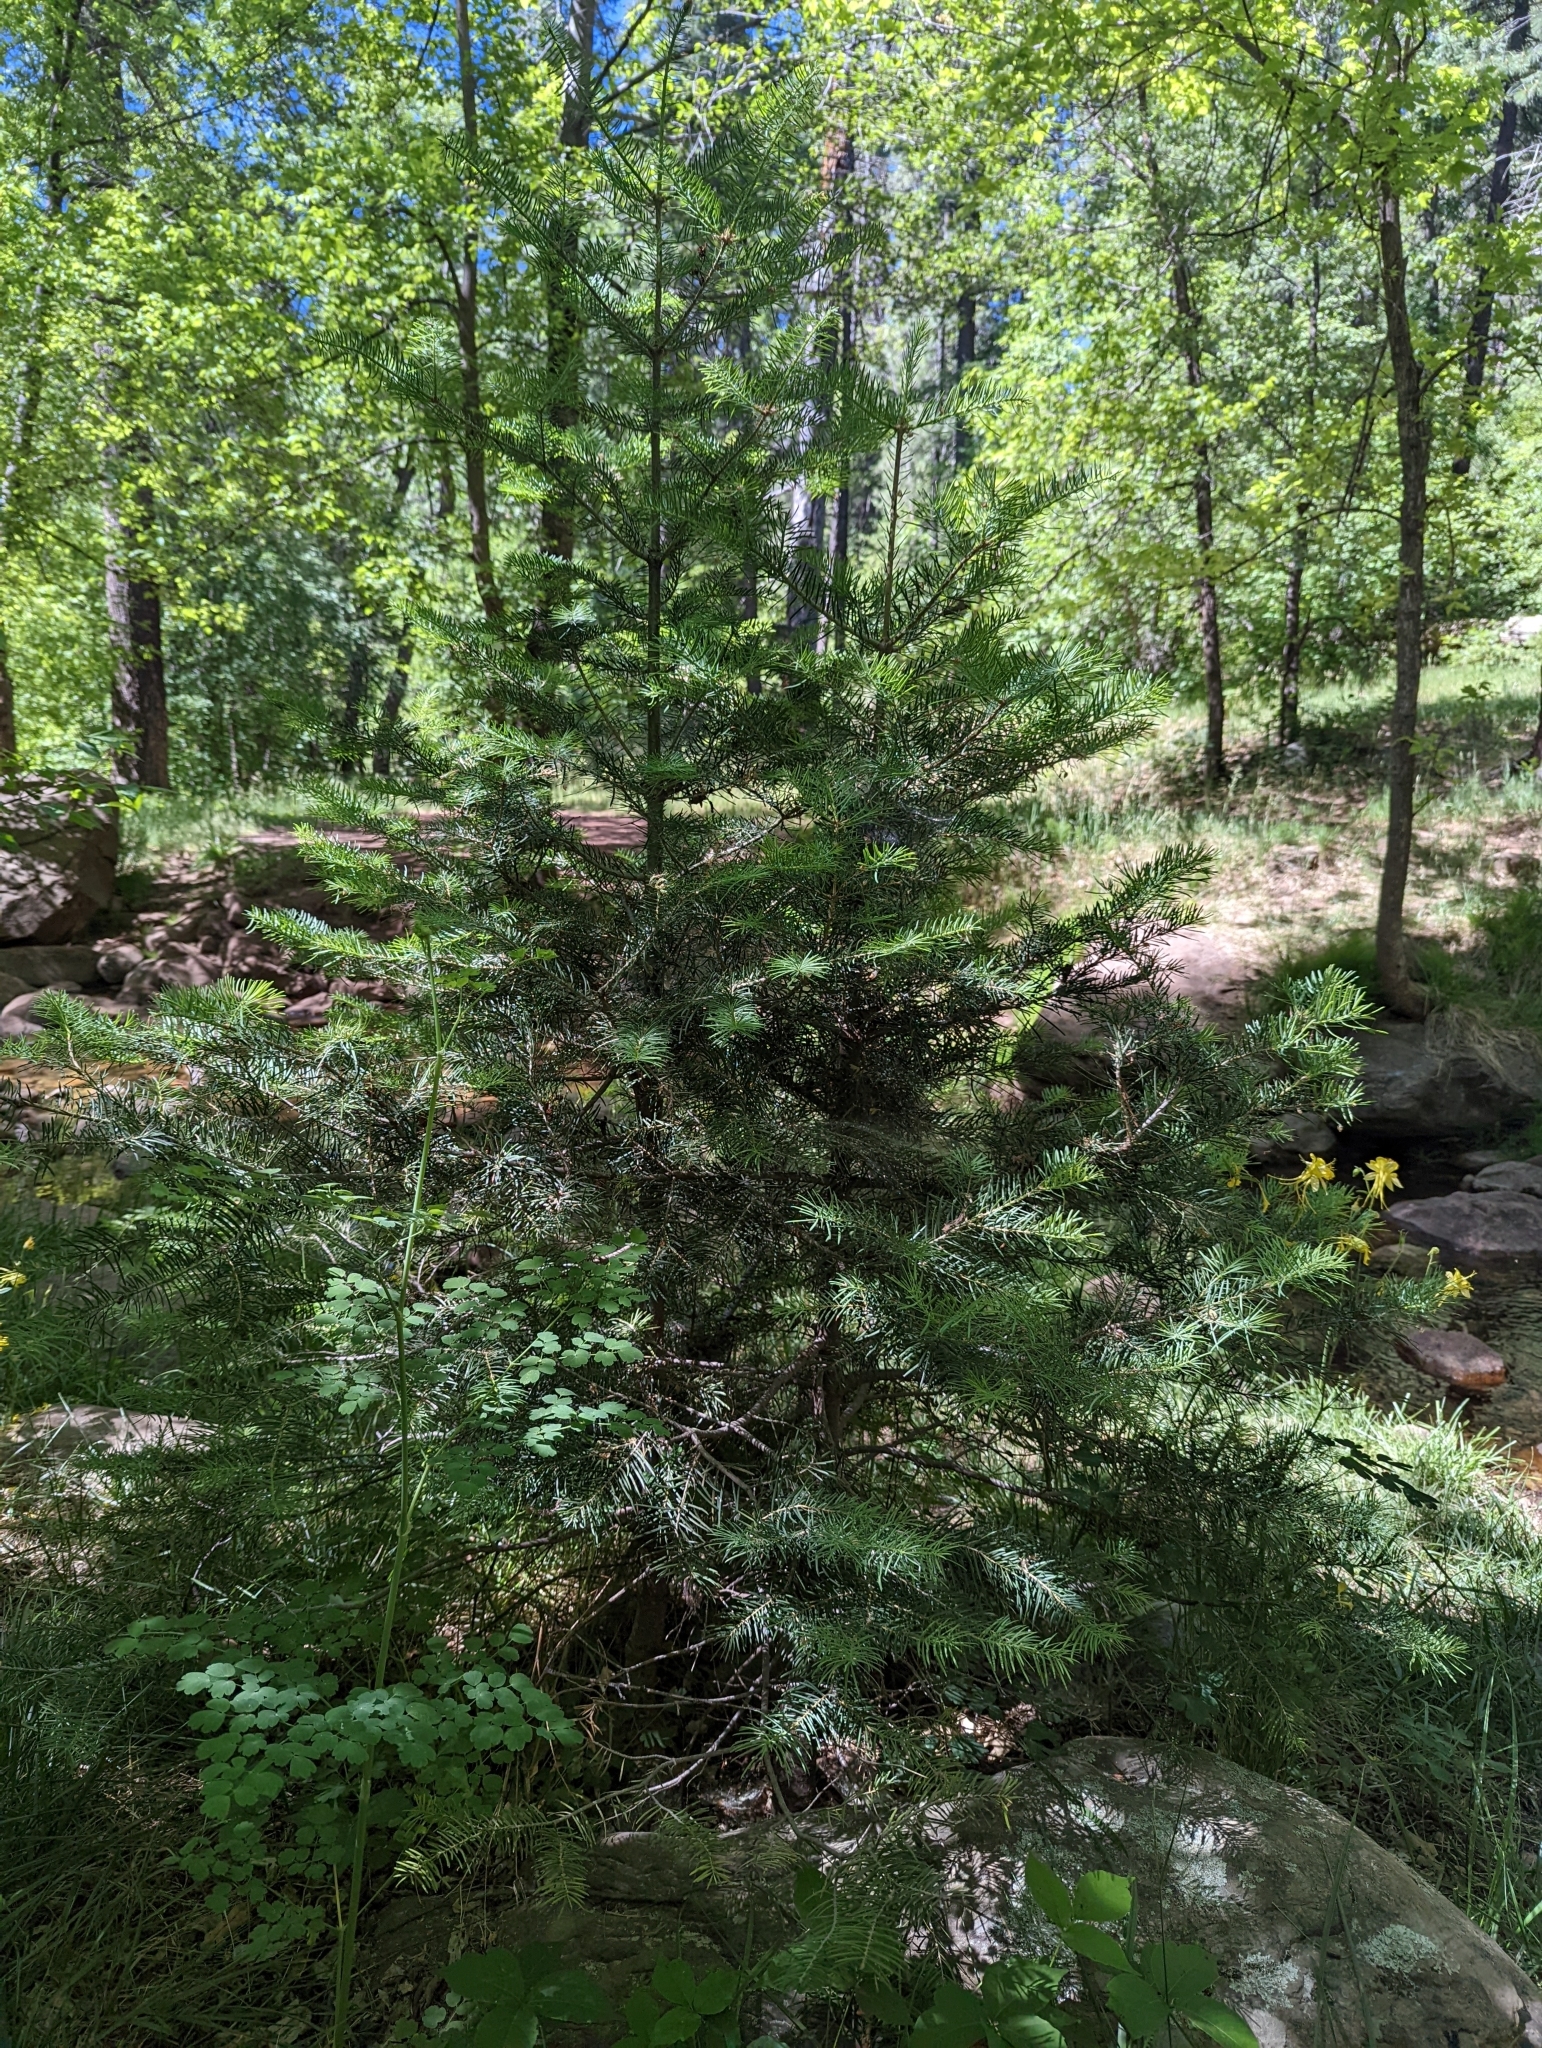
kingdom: Plantae
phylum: Tracheophyta
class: Pinopsida
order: Pinales
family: Pinaceae
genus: Abies
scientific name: Abies concolor
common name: Colorado fir
